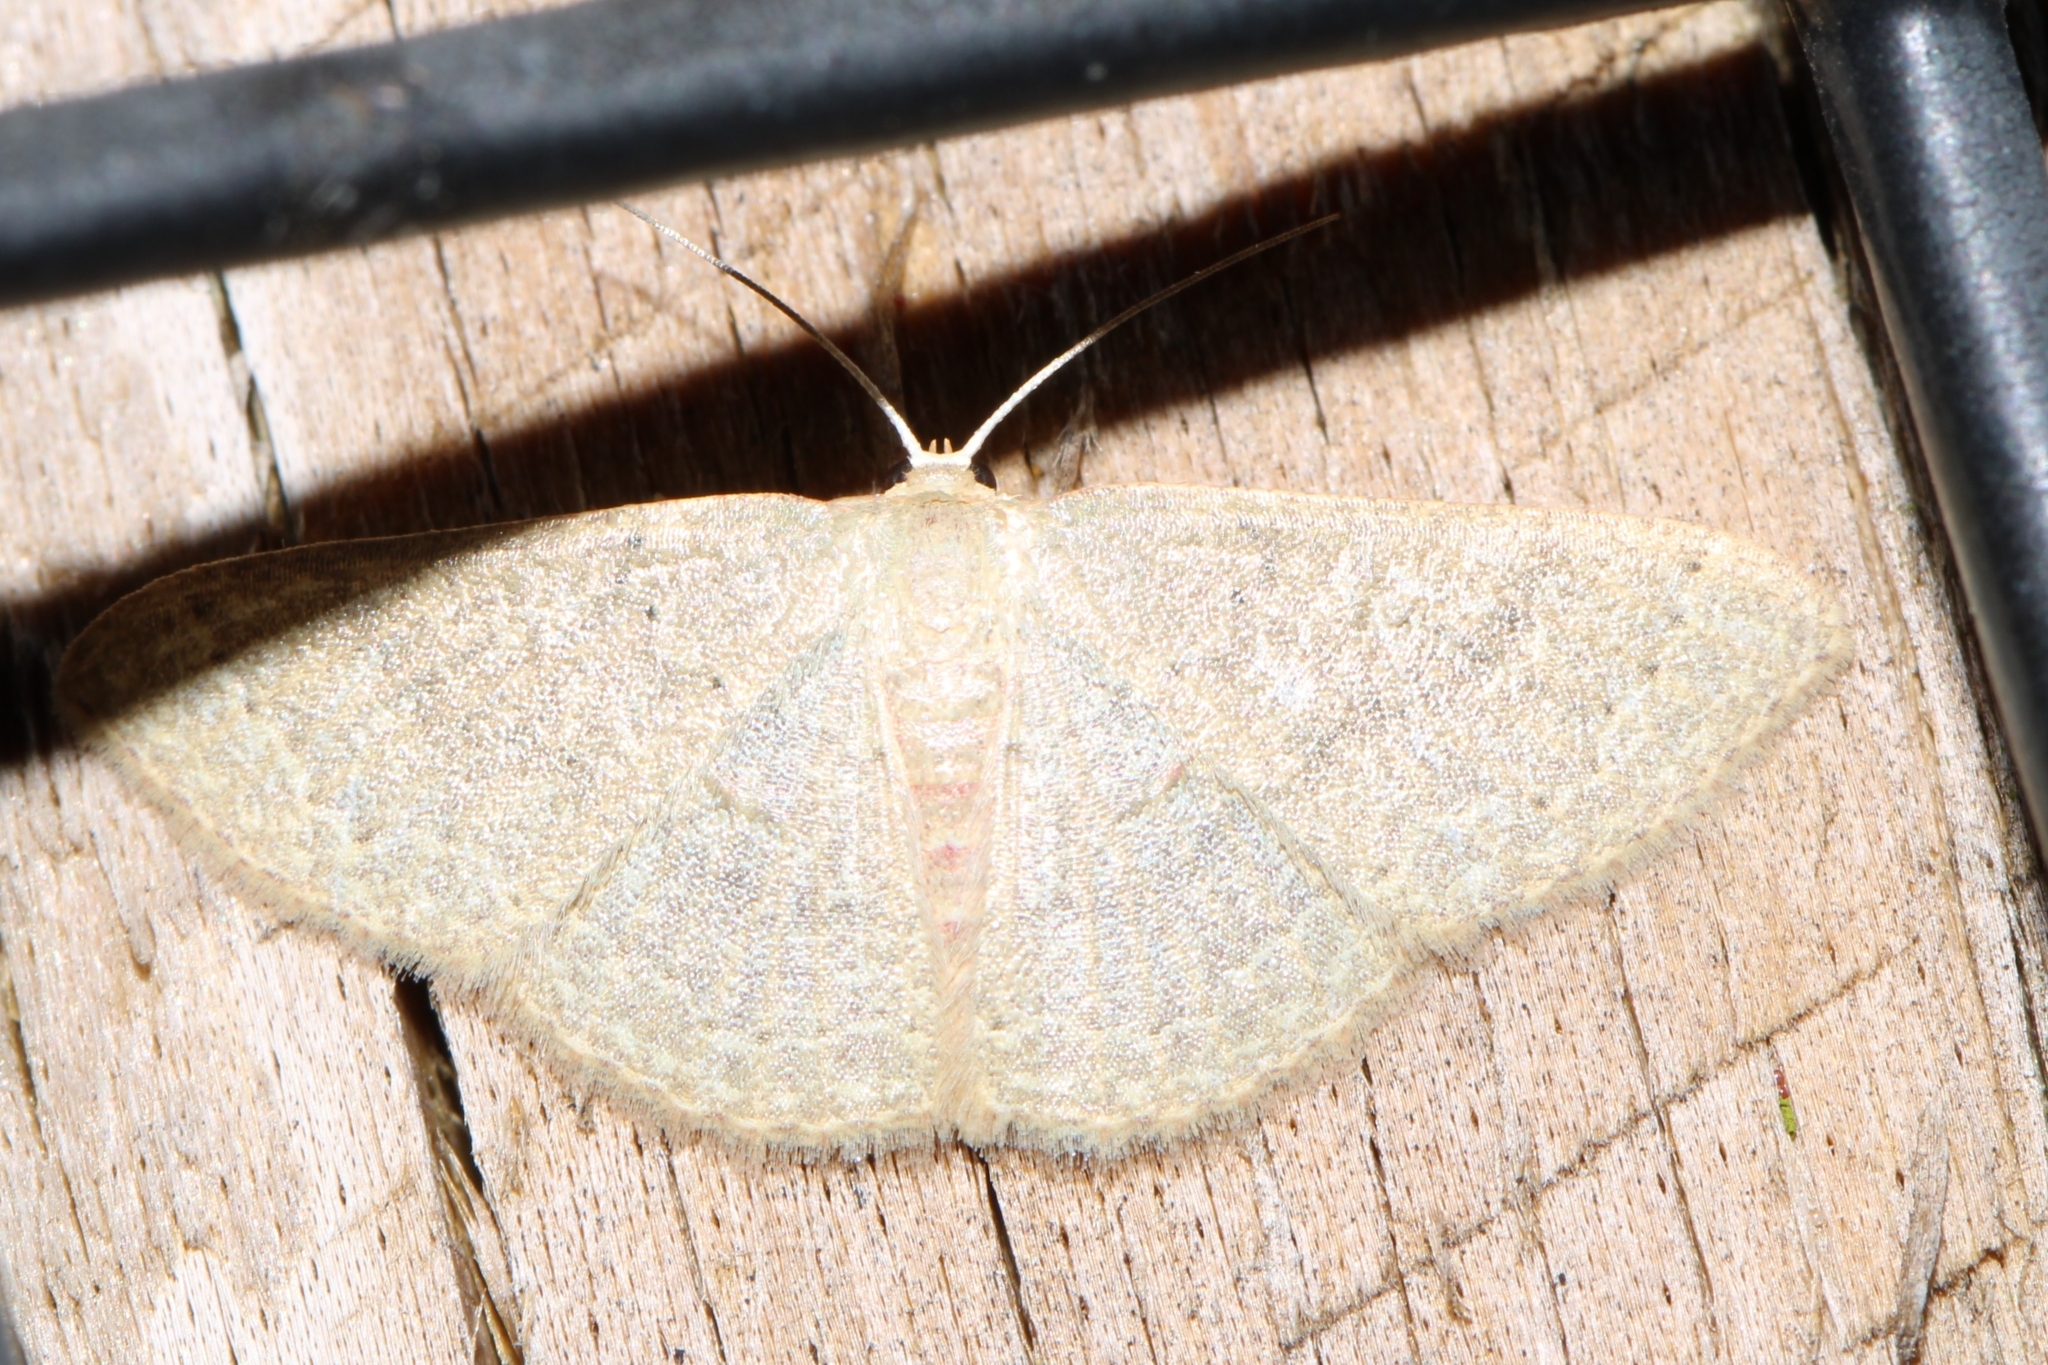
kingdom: Animalia
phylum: Arthropoda
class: Insecta
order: Lepidoptera
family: Geometridae
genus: Pleuroprucha
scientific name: Pleuroprucha insulsaria
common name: Common tan wave
